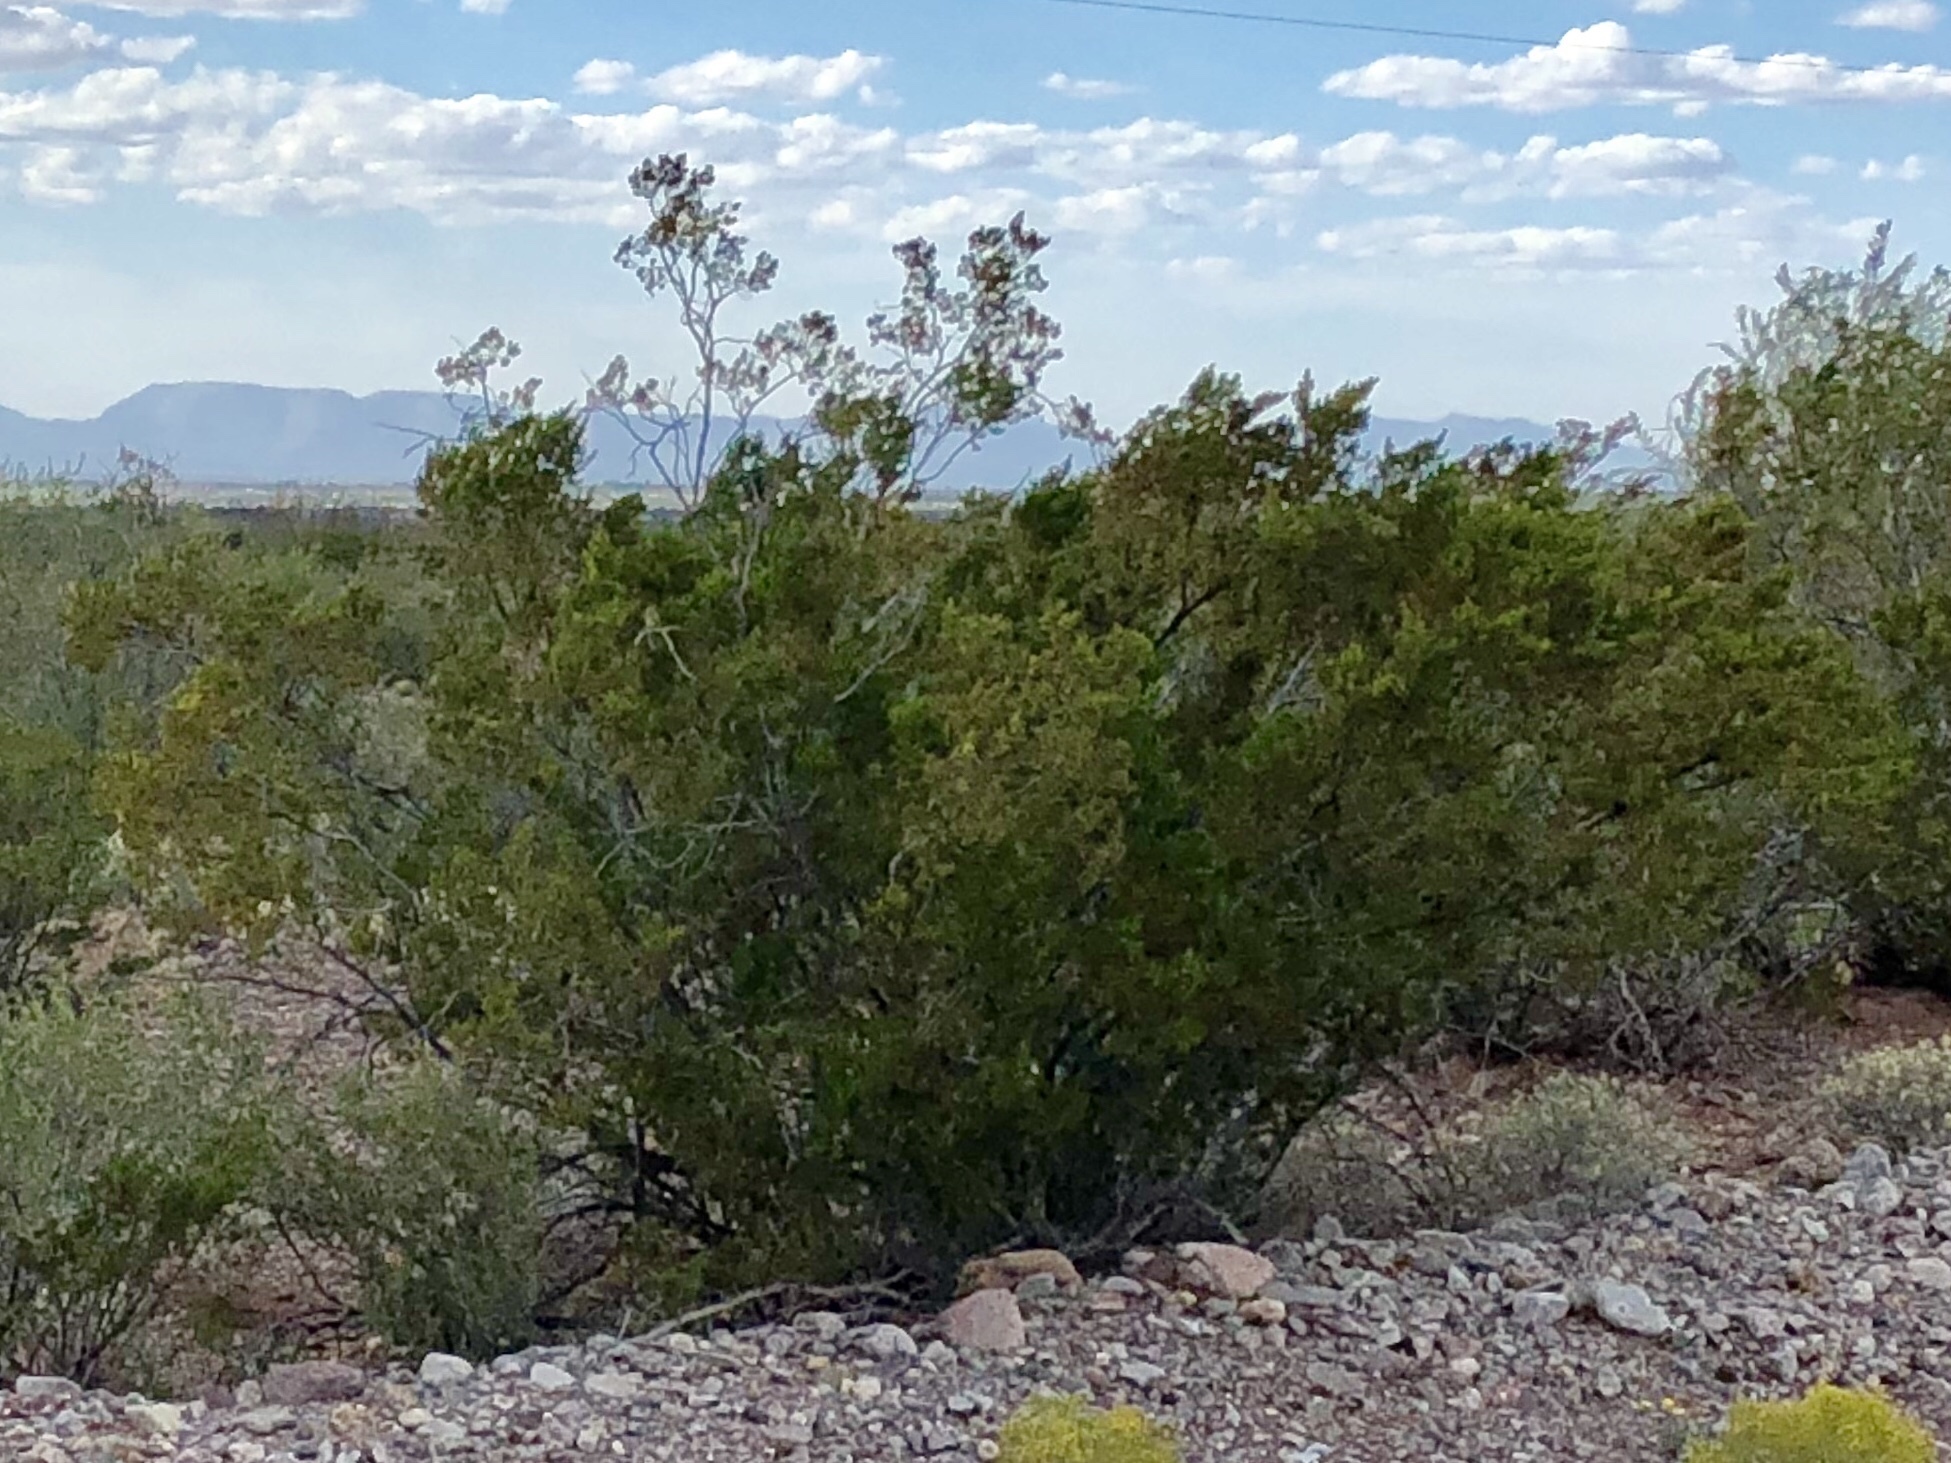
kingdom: Plantae
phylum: Tracheophyta
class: Magnoliopsida
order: Zygophyllales
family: Zygophyllaceae
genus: Larrea
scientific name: Larrea tridentata
